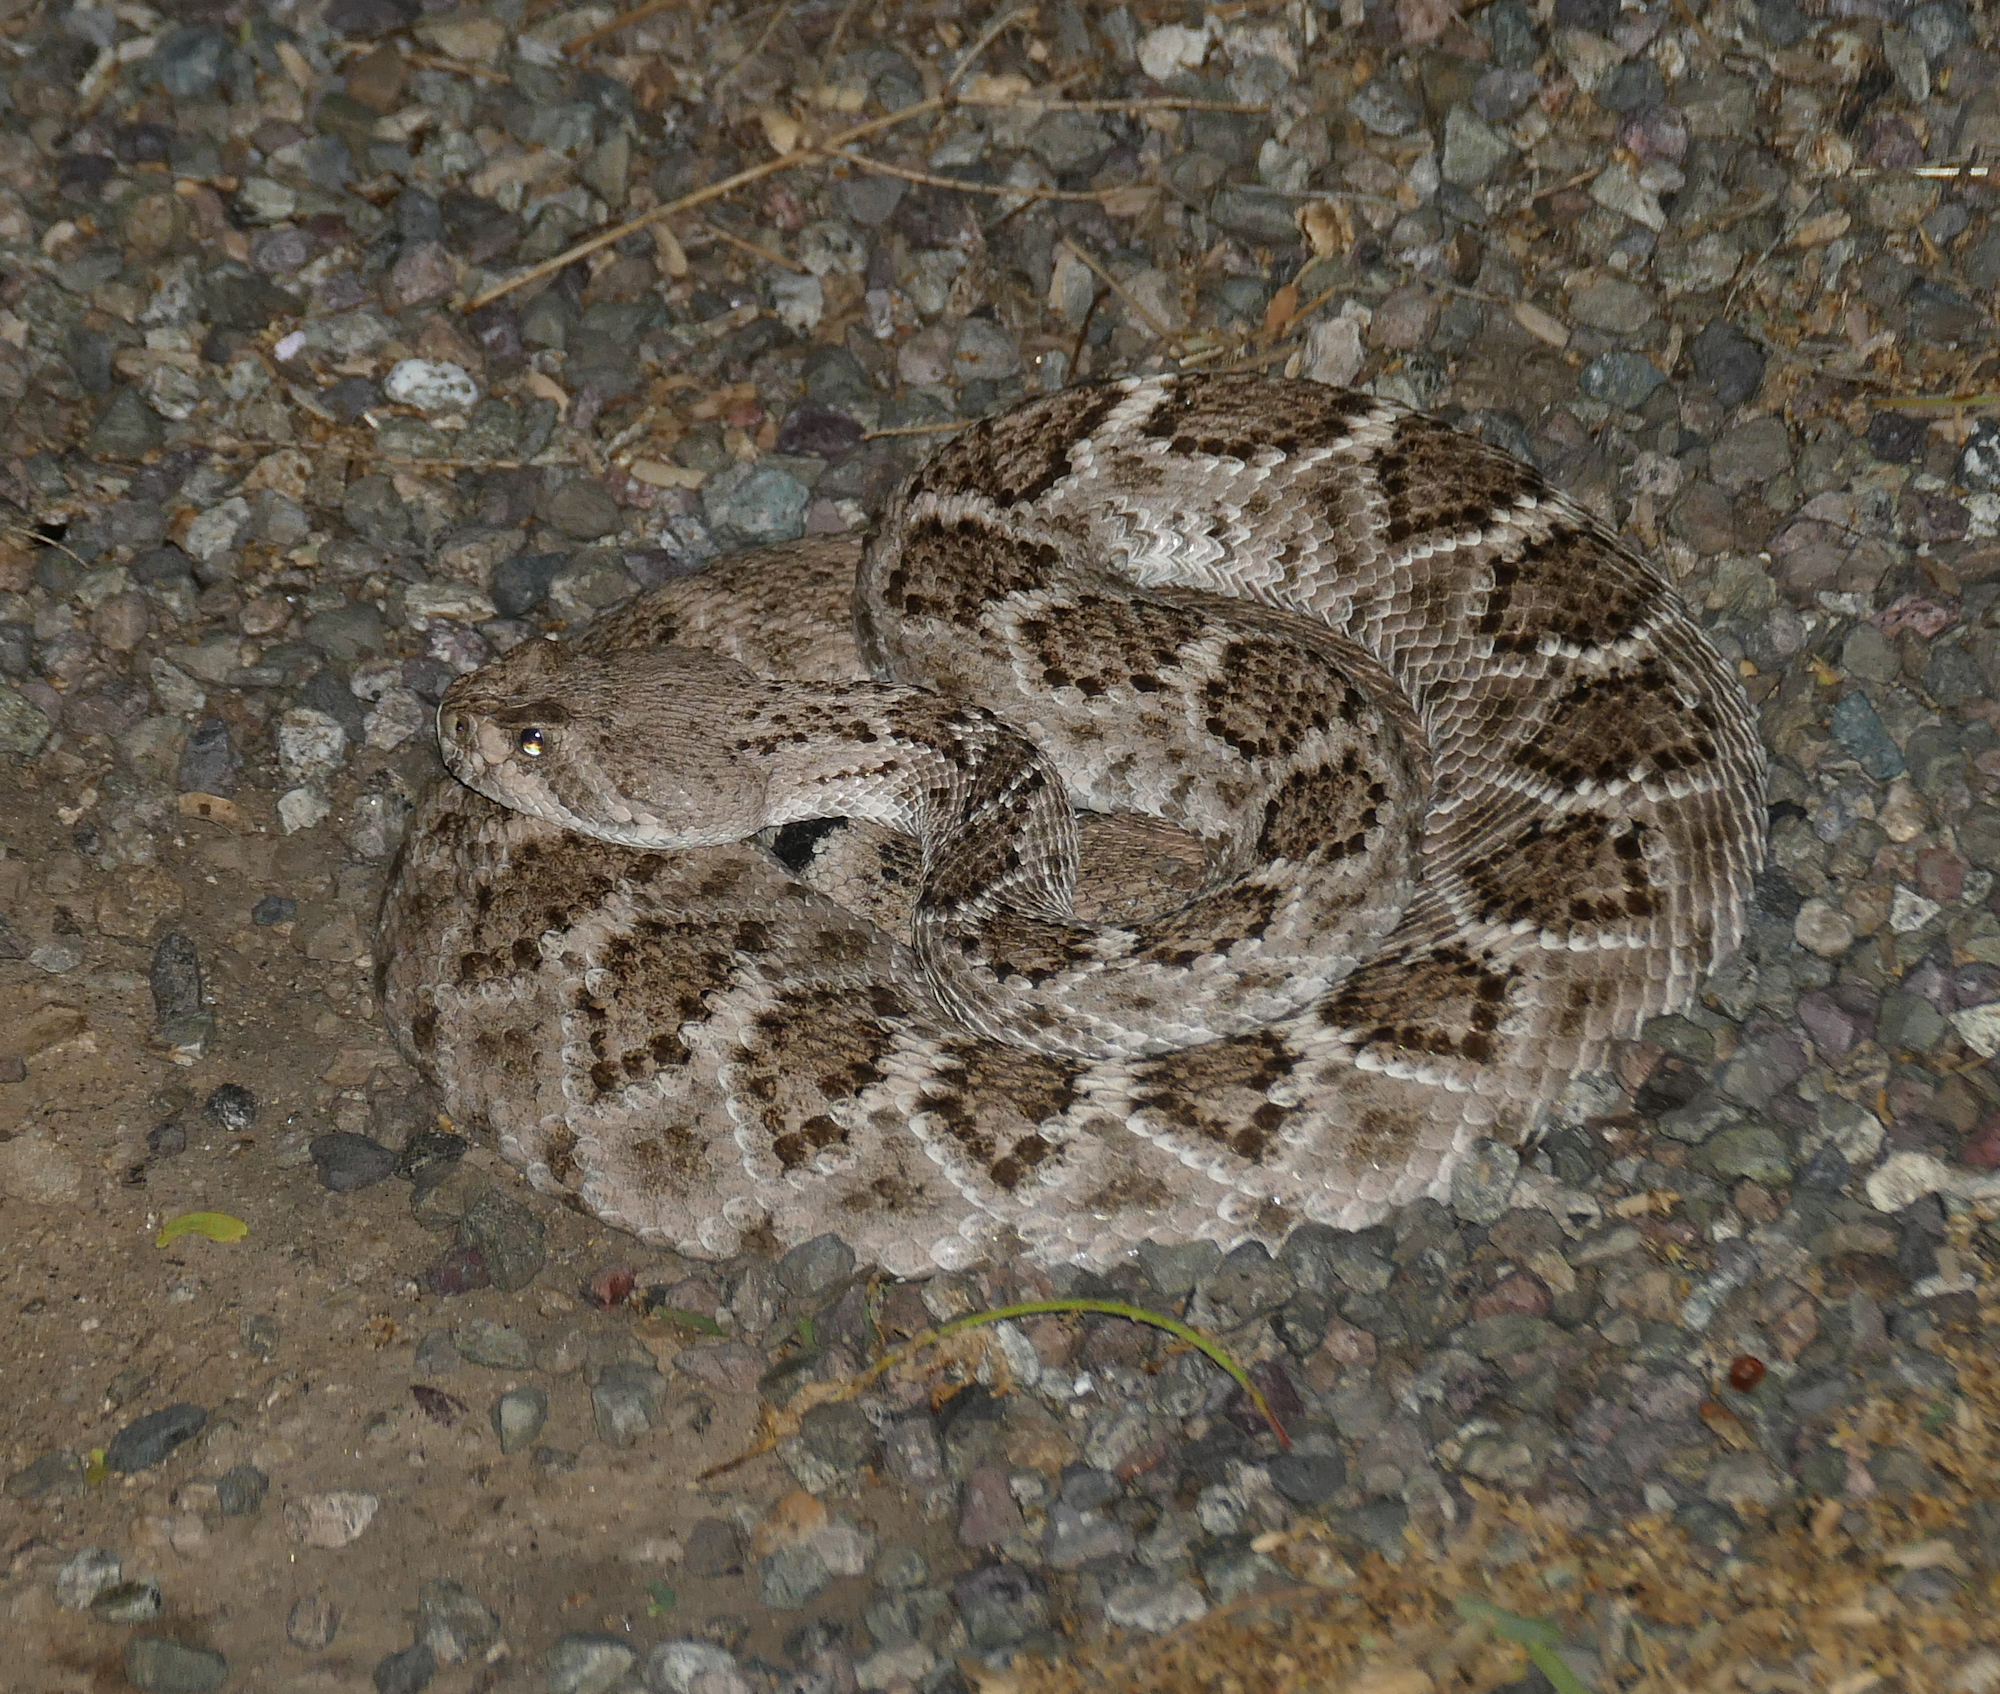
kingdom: Animalia
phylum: Chordata
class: Squamata
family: Viperidae
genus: Crotalus
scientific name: Crotalus atrox
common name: Western diamond-backed rattlesnake
